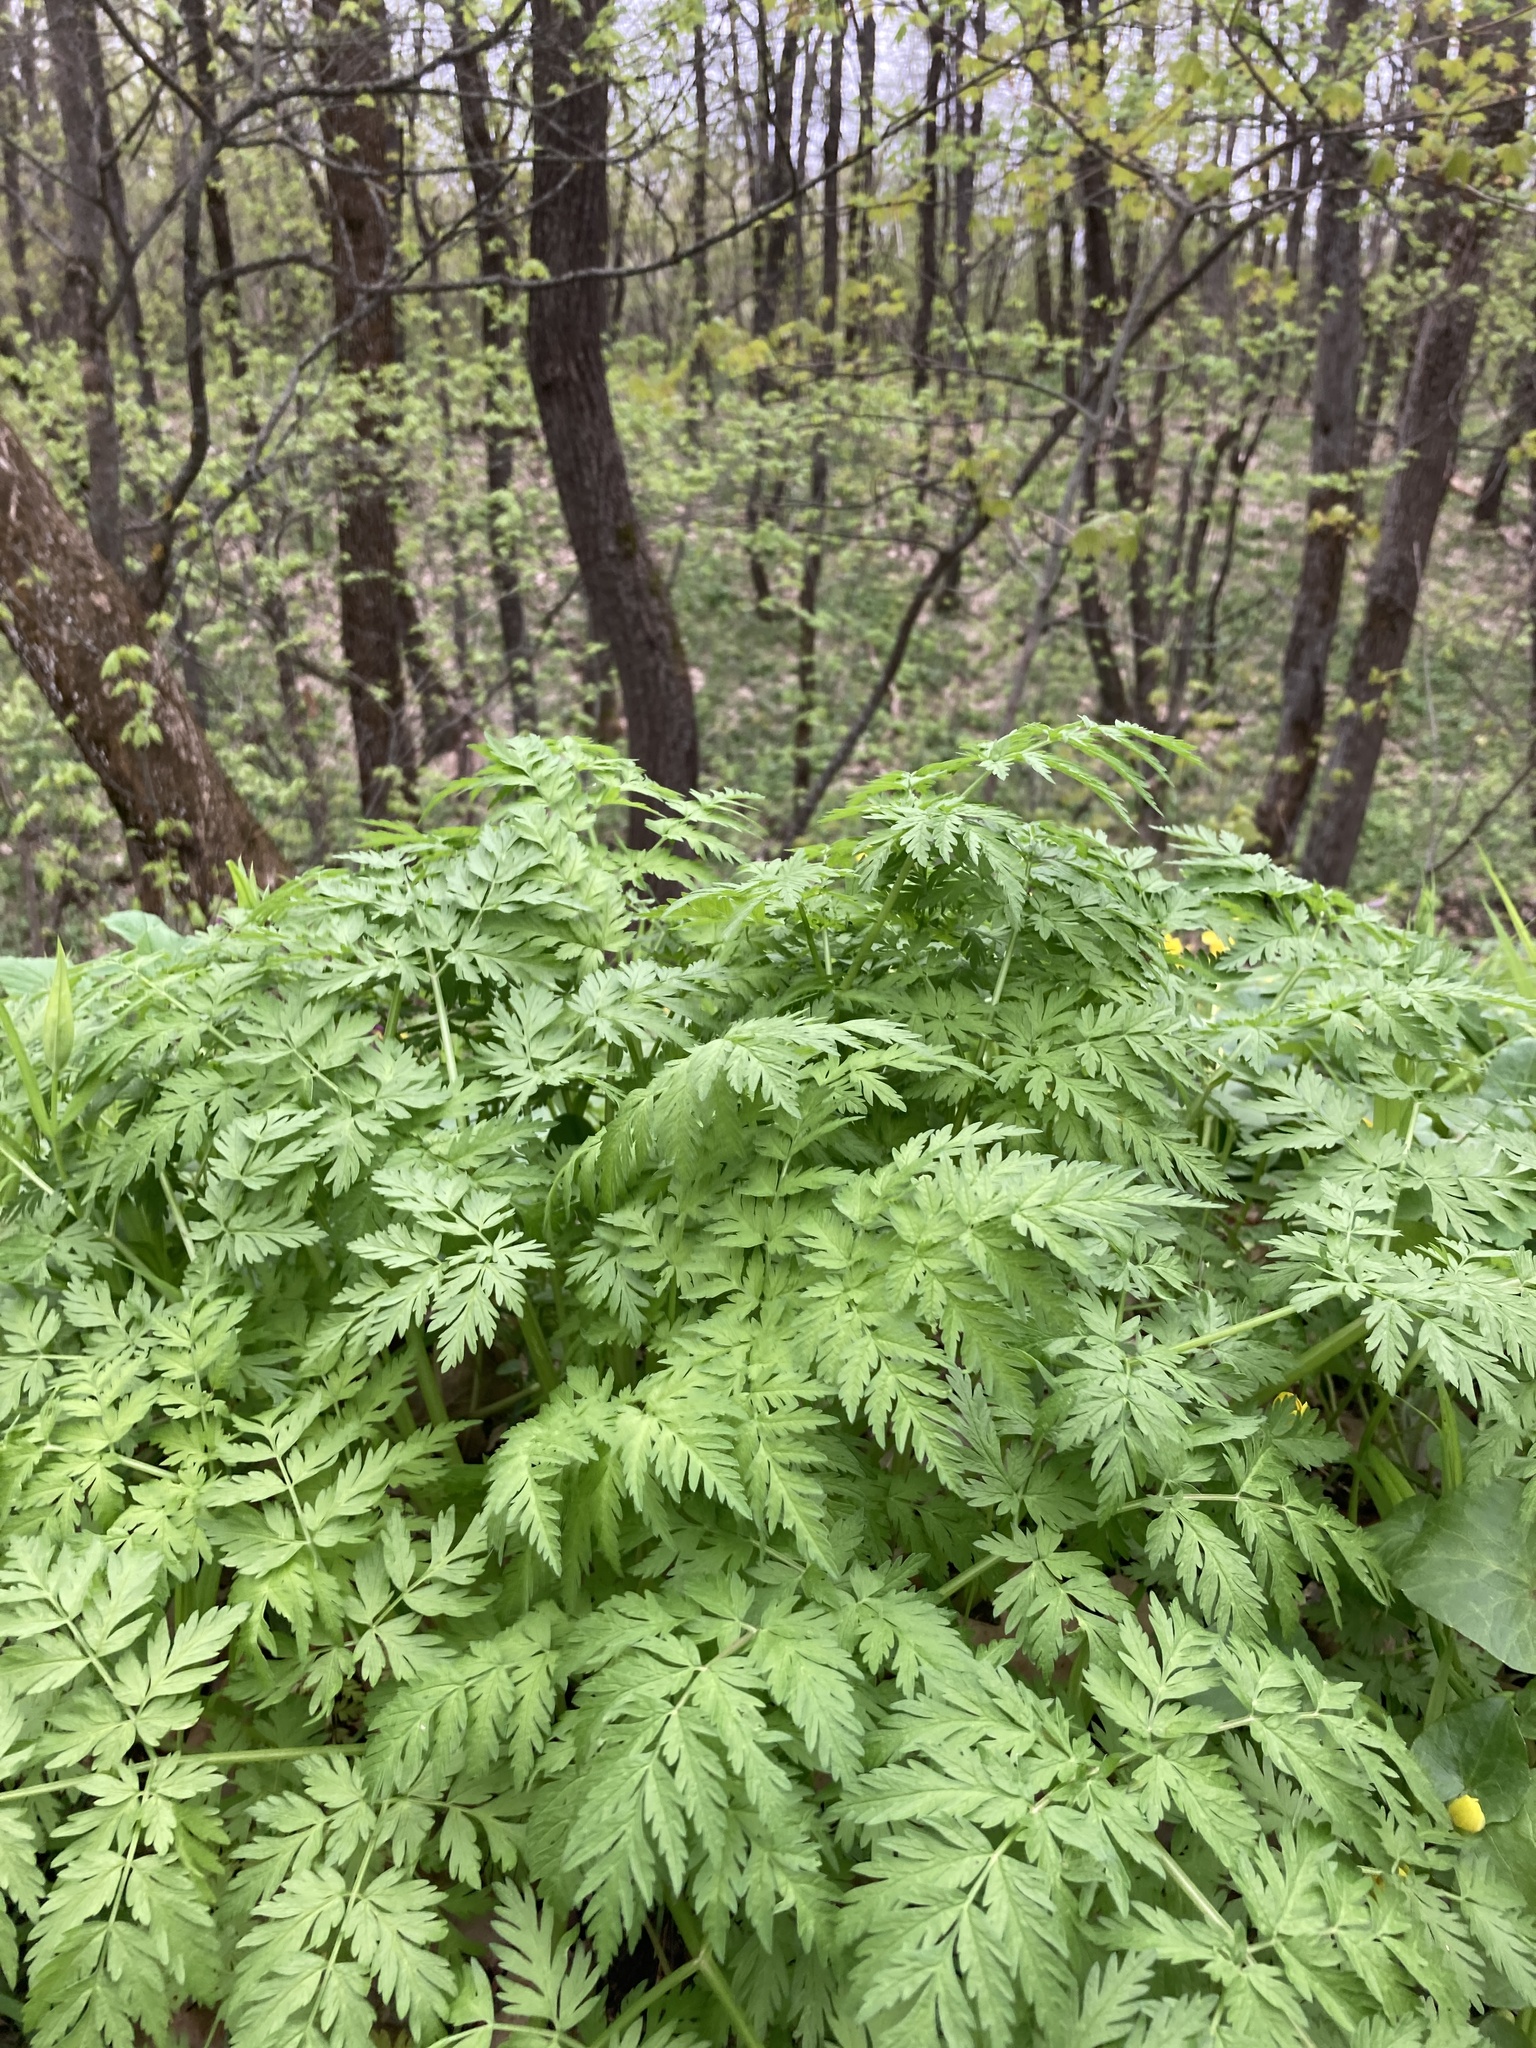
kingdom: Plantae
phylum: Tracheophyta
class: Magnoliopsida
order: Apiales
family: Apiaceae
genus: Anthriscus
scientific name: Anthriscus sylvestris
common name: Cow parsley
